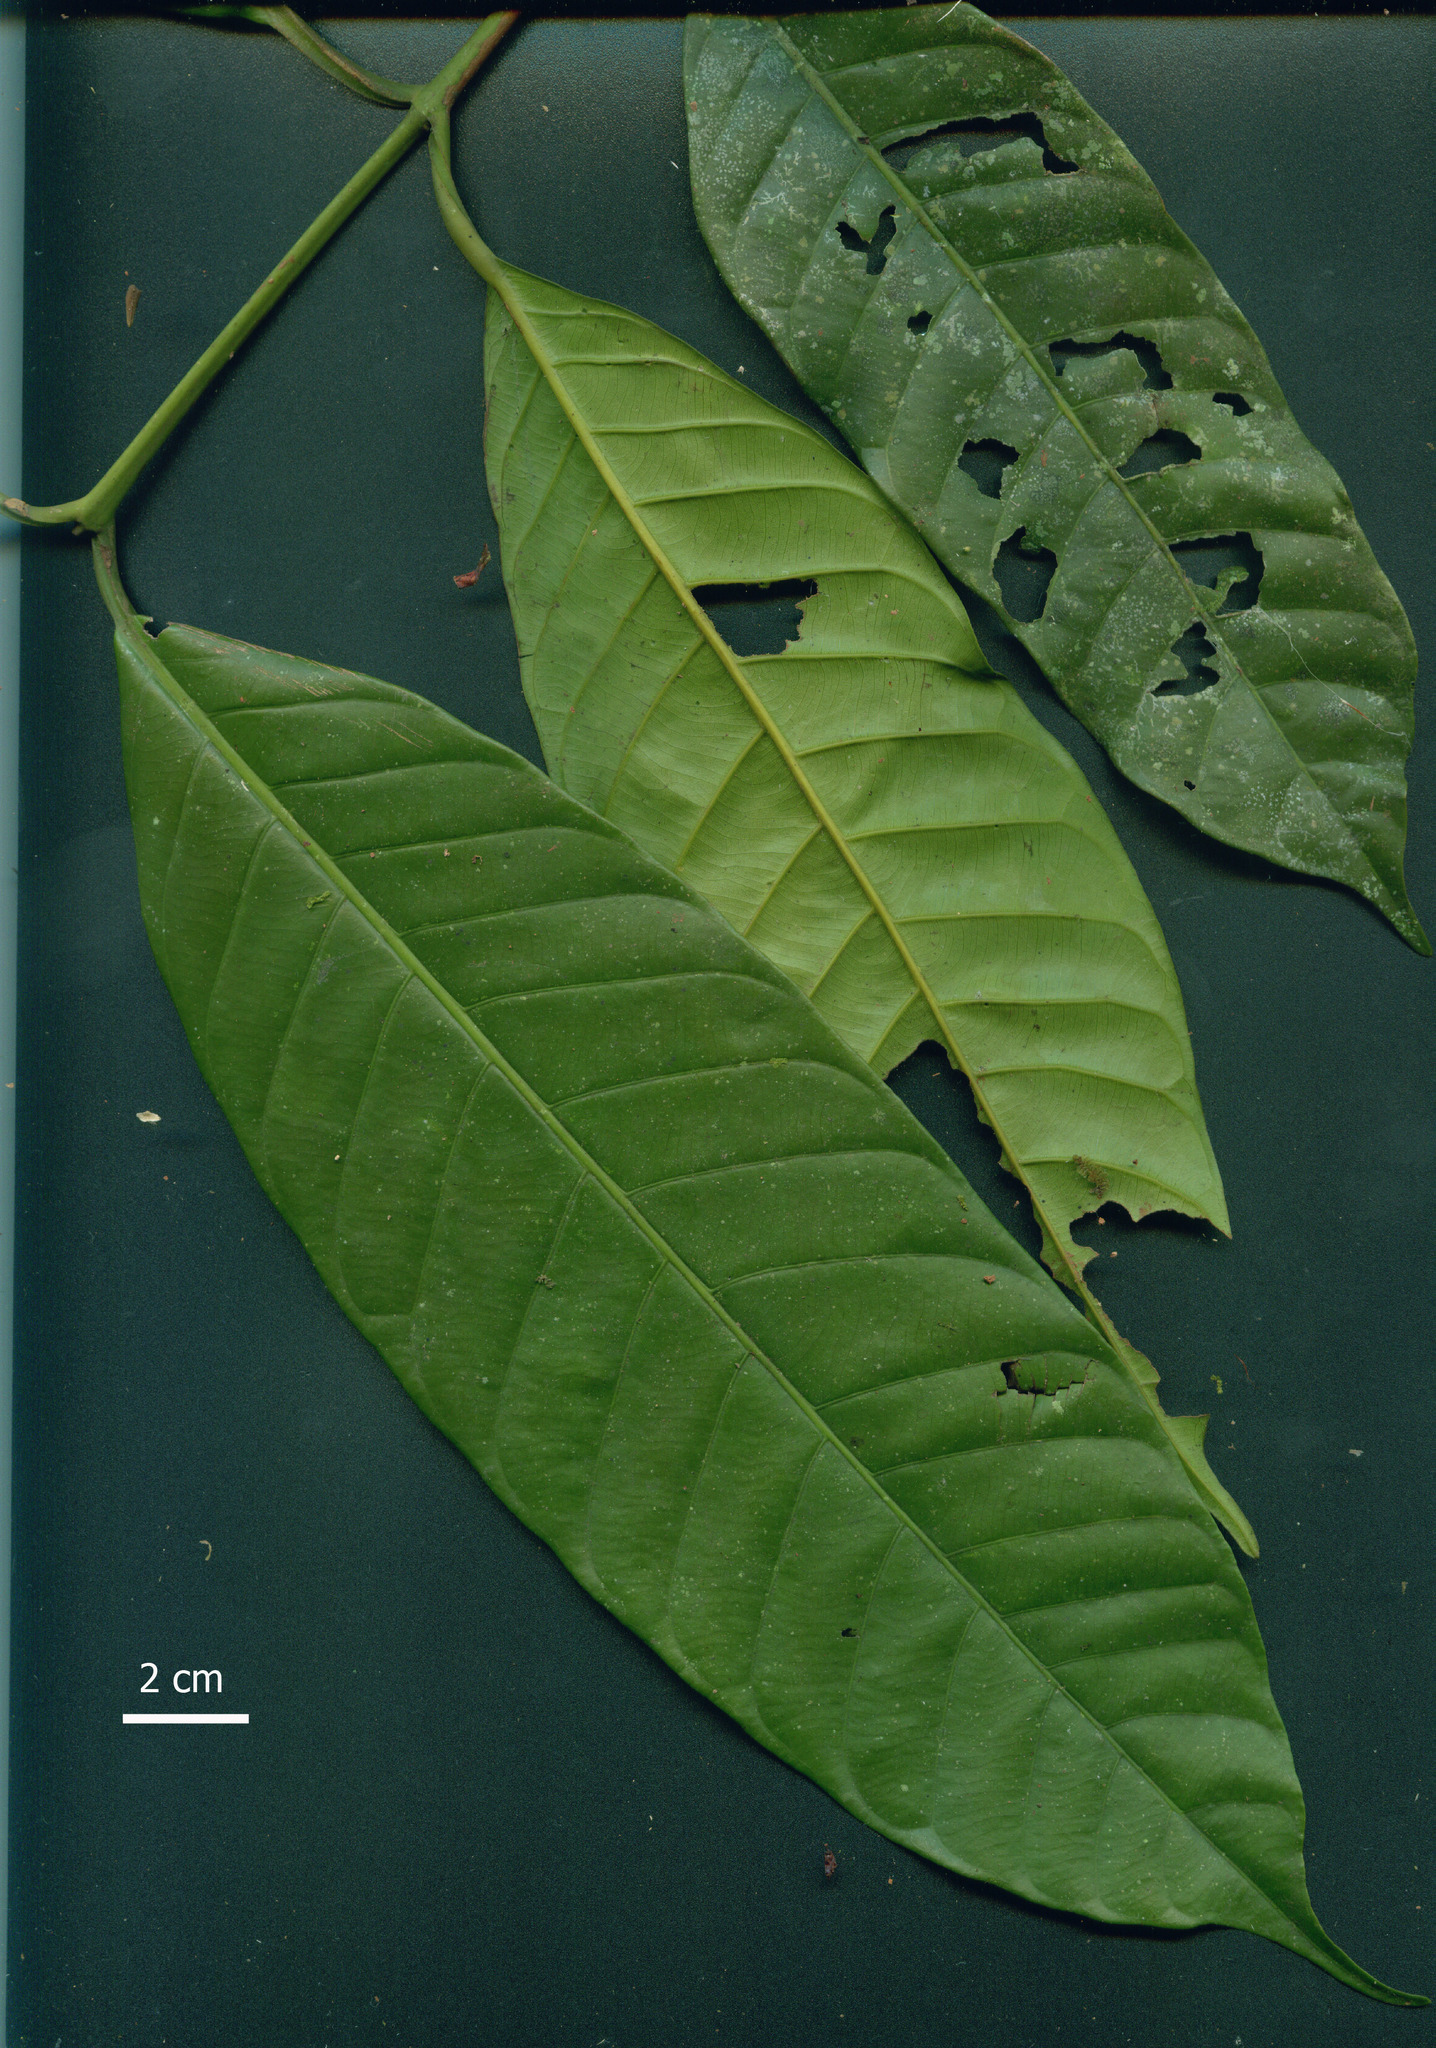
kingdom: Plantae
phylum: Tracheophyta
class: Magnoliopsida
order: Malpighiales
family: Calophyllaceae
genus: Marila
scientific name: Marila laxiflora
